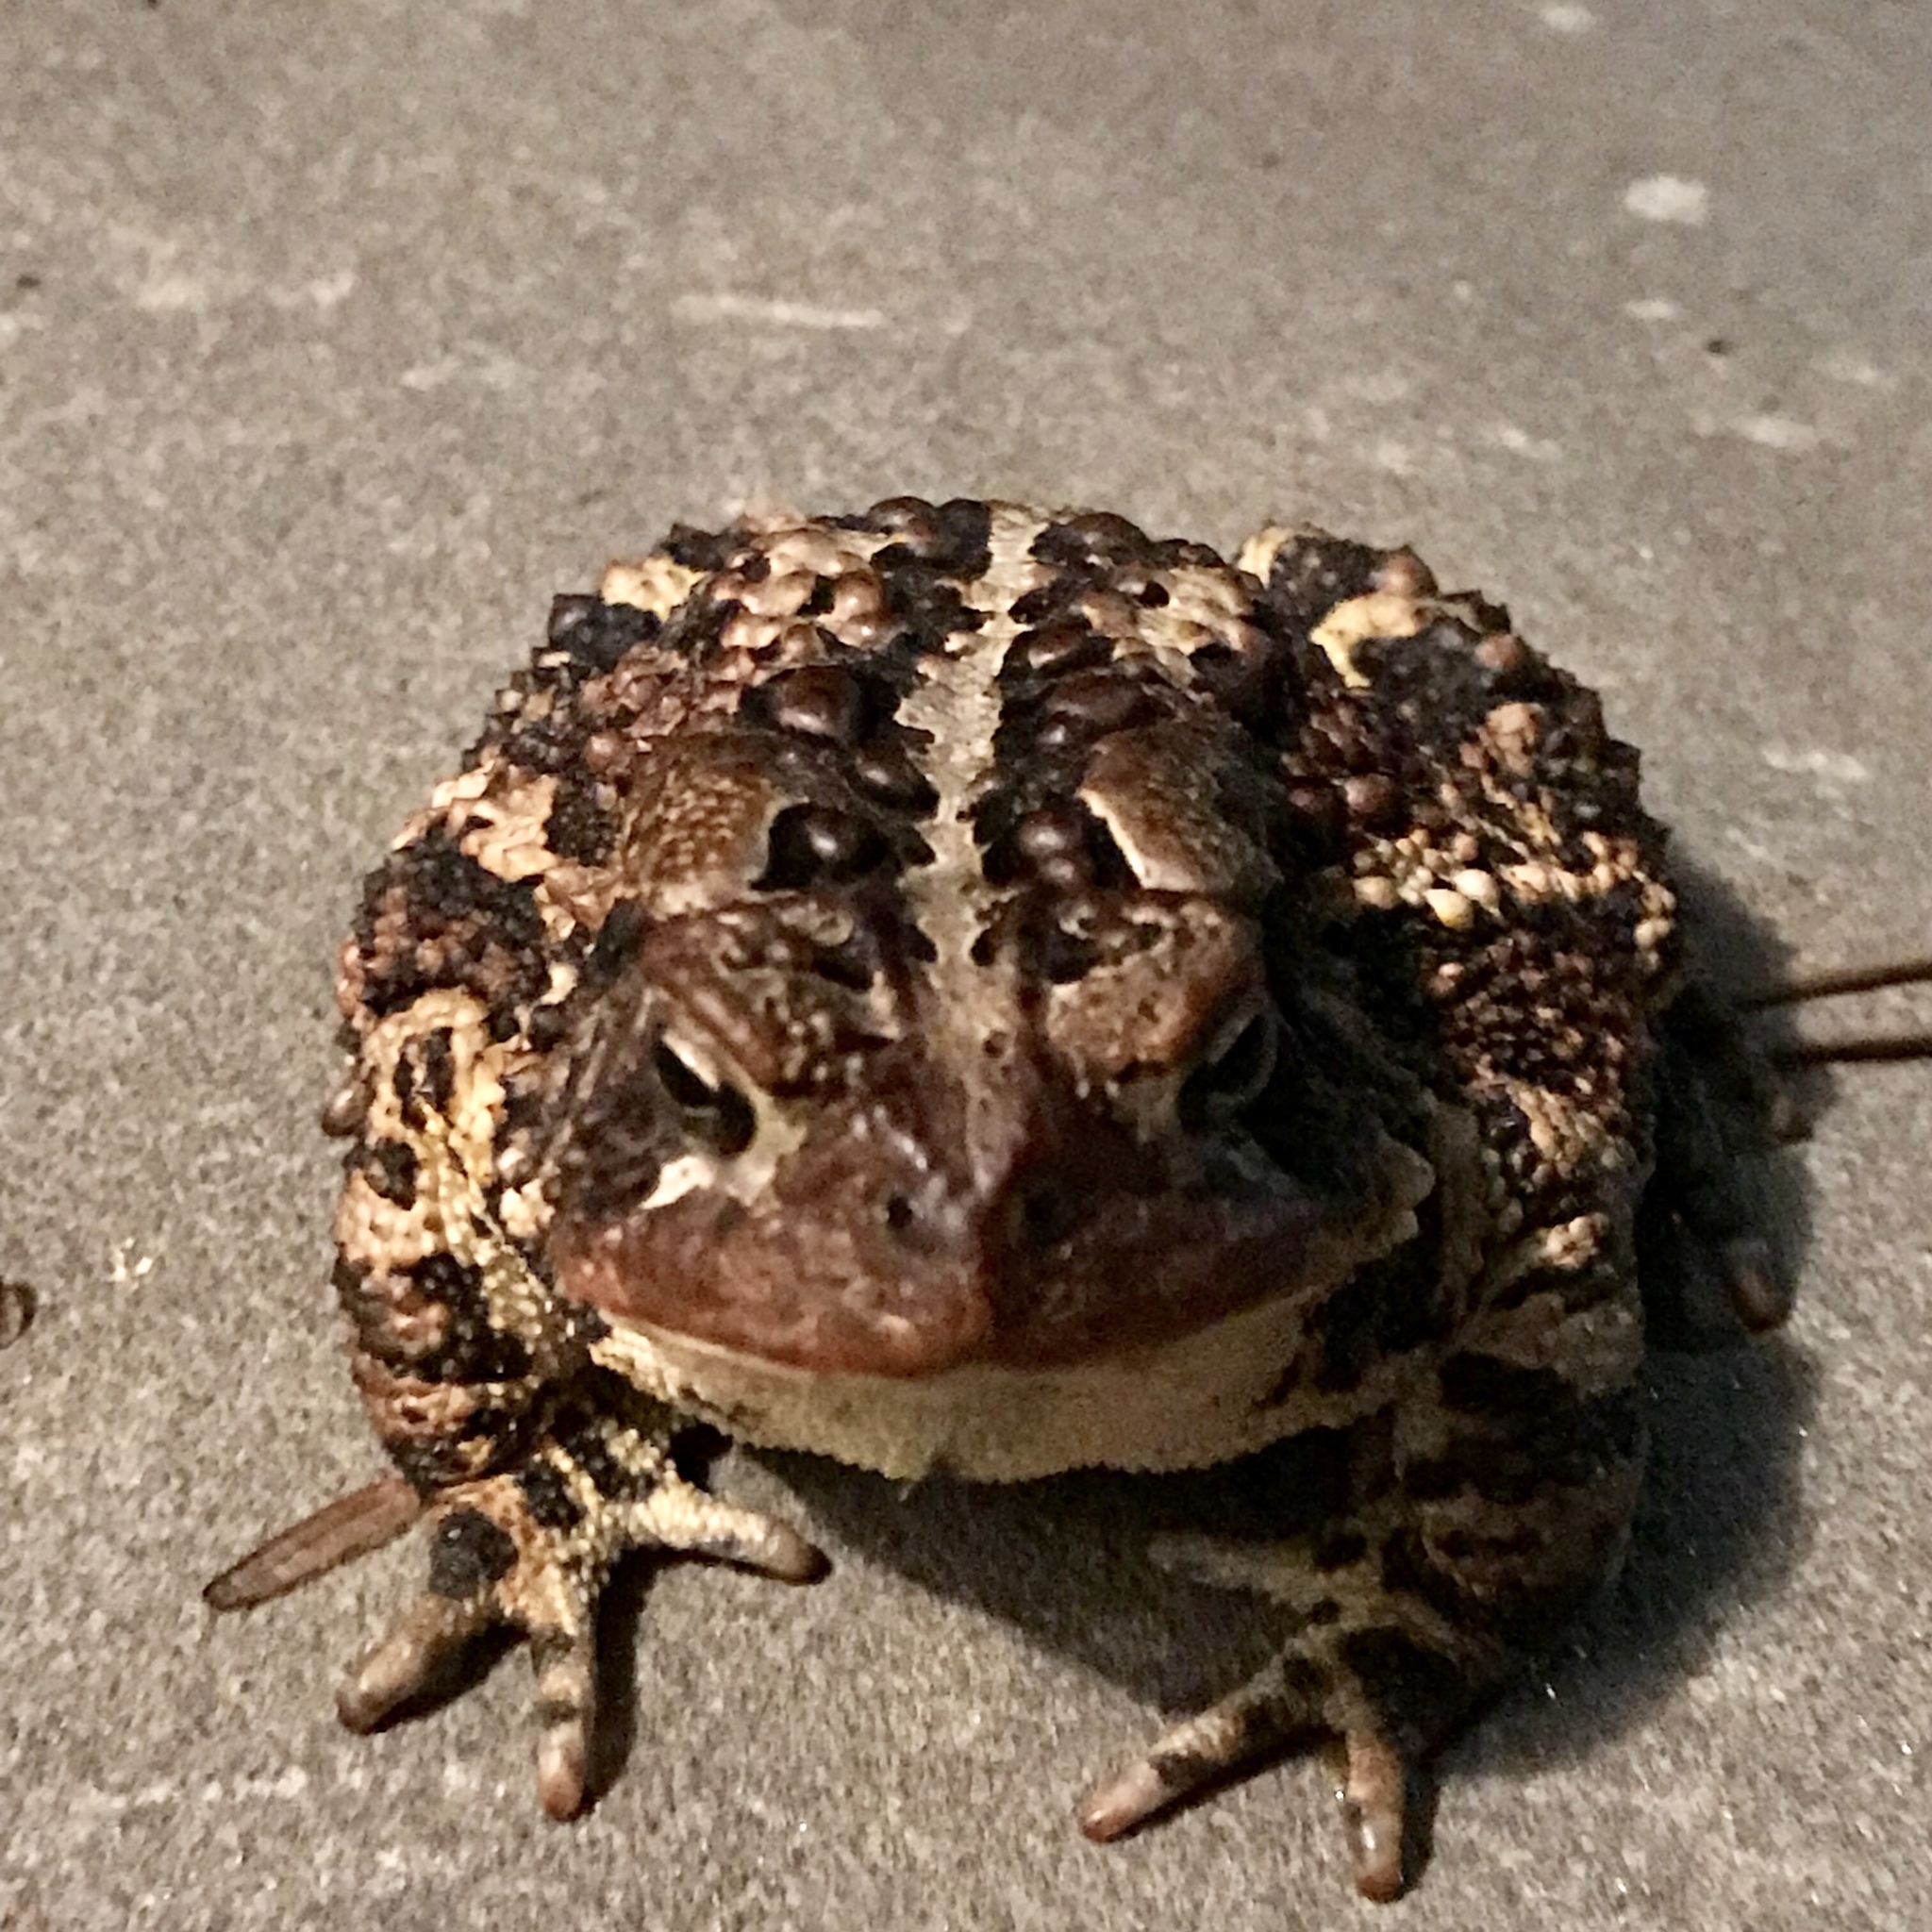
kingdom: Animalia
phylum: Chordata
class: Amphibia
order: Anura
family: Bufonidae
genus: Anaxyrus
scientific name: Anaxyrus americanus
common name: American toad
